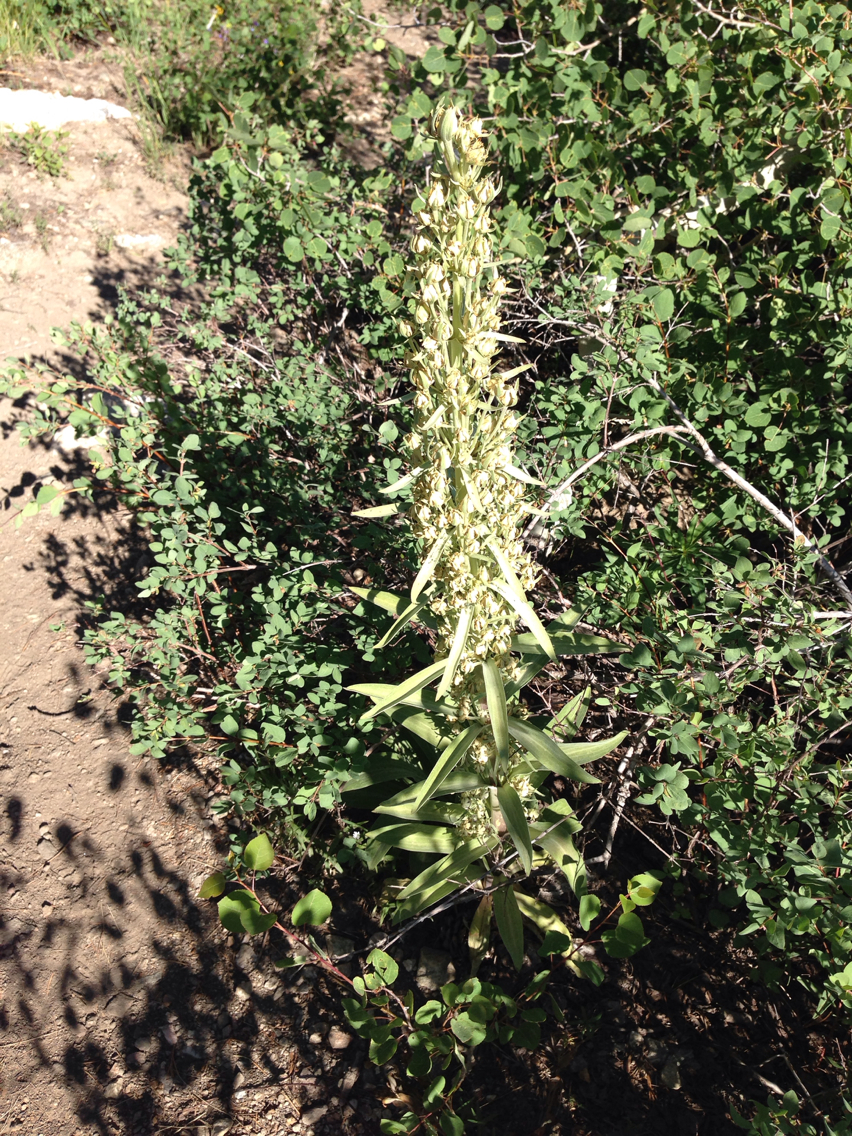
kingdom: Plantae
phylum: Tracheophyta
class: Magnoliopsida
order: Gentianales
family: Gentianaceae
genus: Frasera
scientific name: Frasera speciosa
